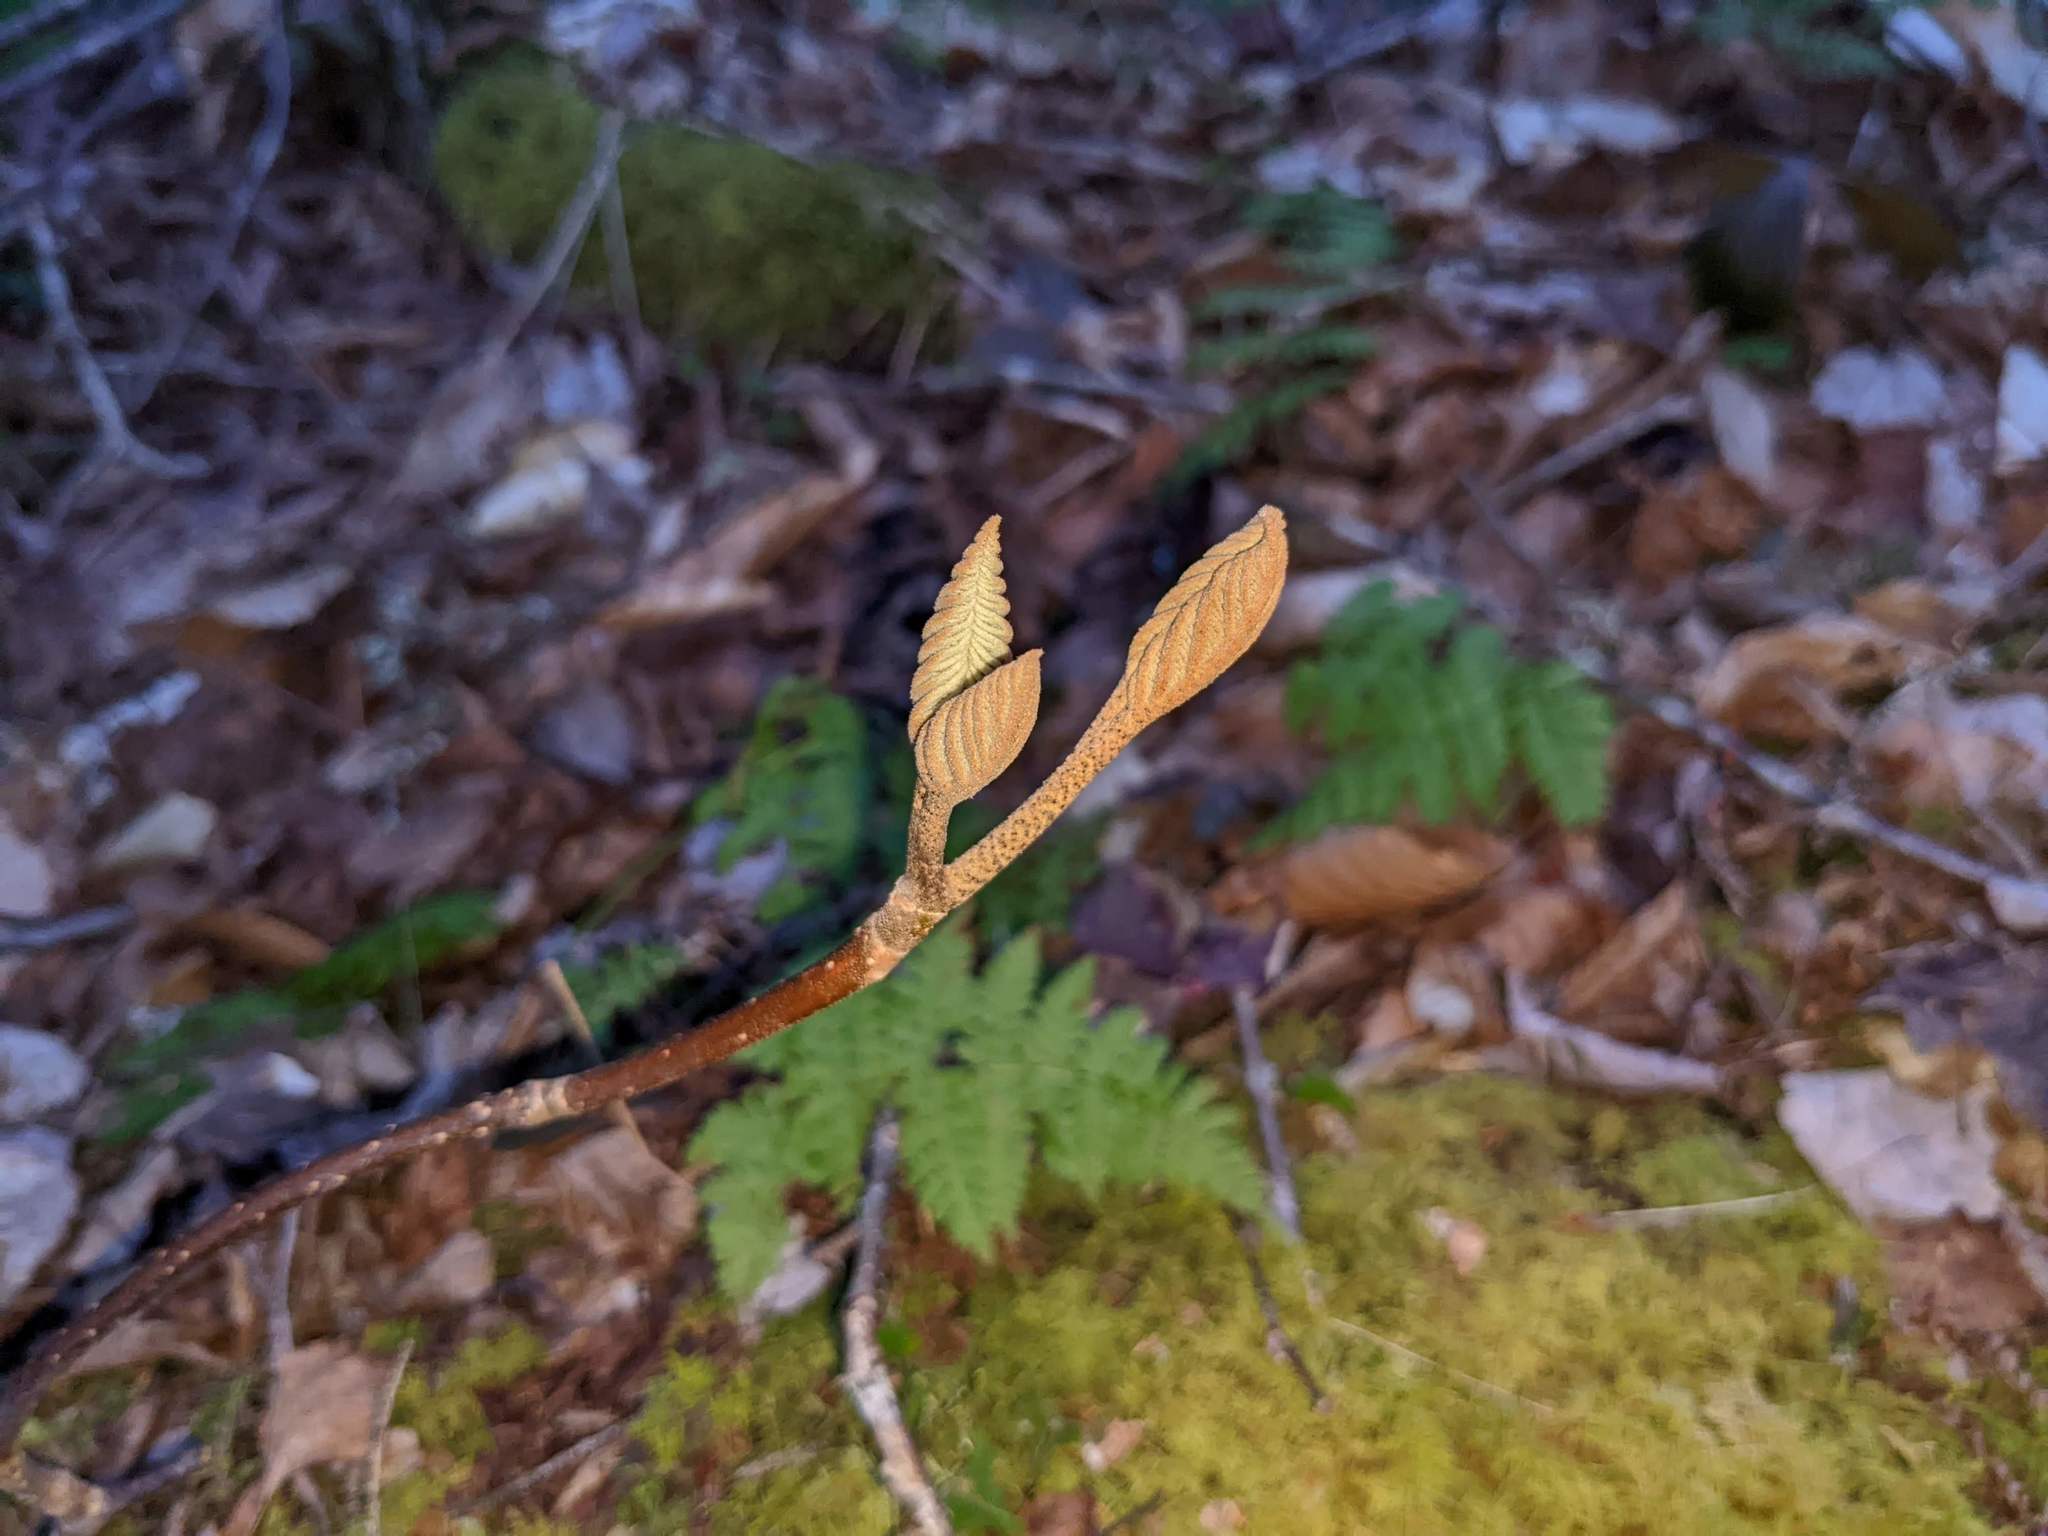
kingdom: Plantae
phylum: Tracheophyta
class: Magnoliopsida
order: Dipsacales
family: Viburnaceae
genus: Viburnum
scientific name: Viburnum lantanoides
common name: Hobblebush
